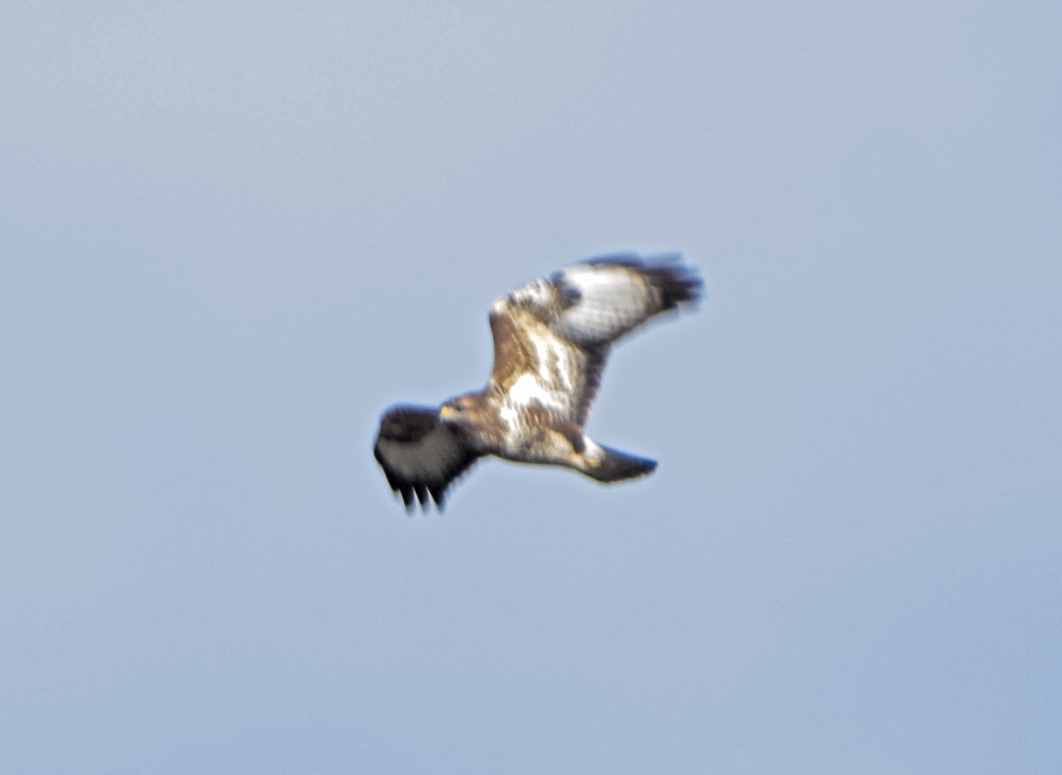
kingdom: Animalia
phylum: Chordata
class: Aves
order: Accipitriformes
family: Accipitridae
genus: Buteo
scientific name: Buteo buteo
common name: Common buzzard
